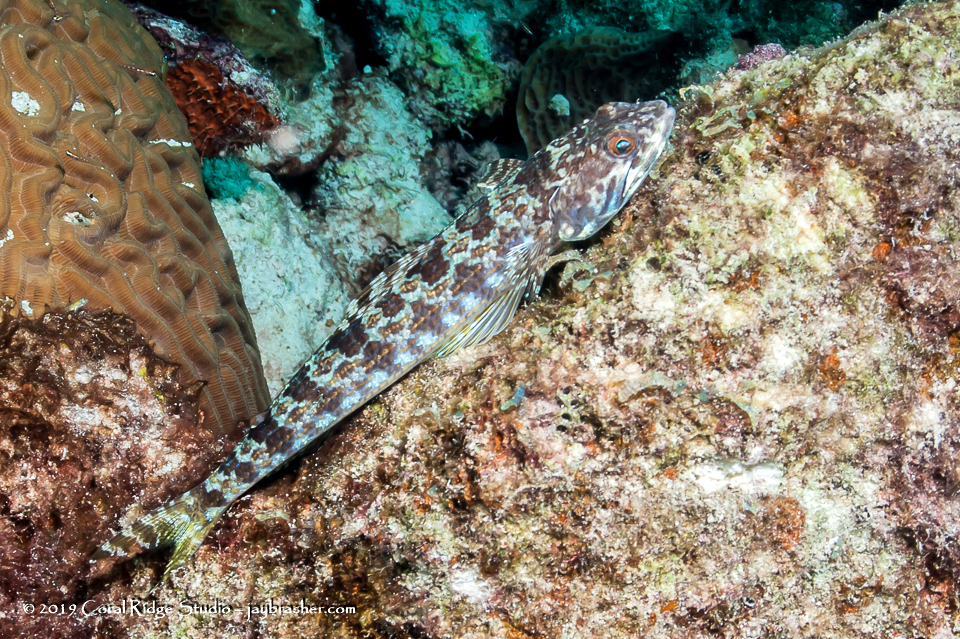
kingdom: Animalia
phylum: Chordata
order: Aulopiformes
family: Synodontidae
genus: Synodus
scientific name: Synodus intermedius
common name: Sand diver
